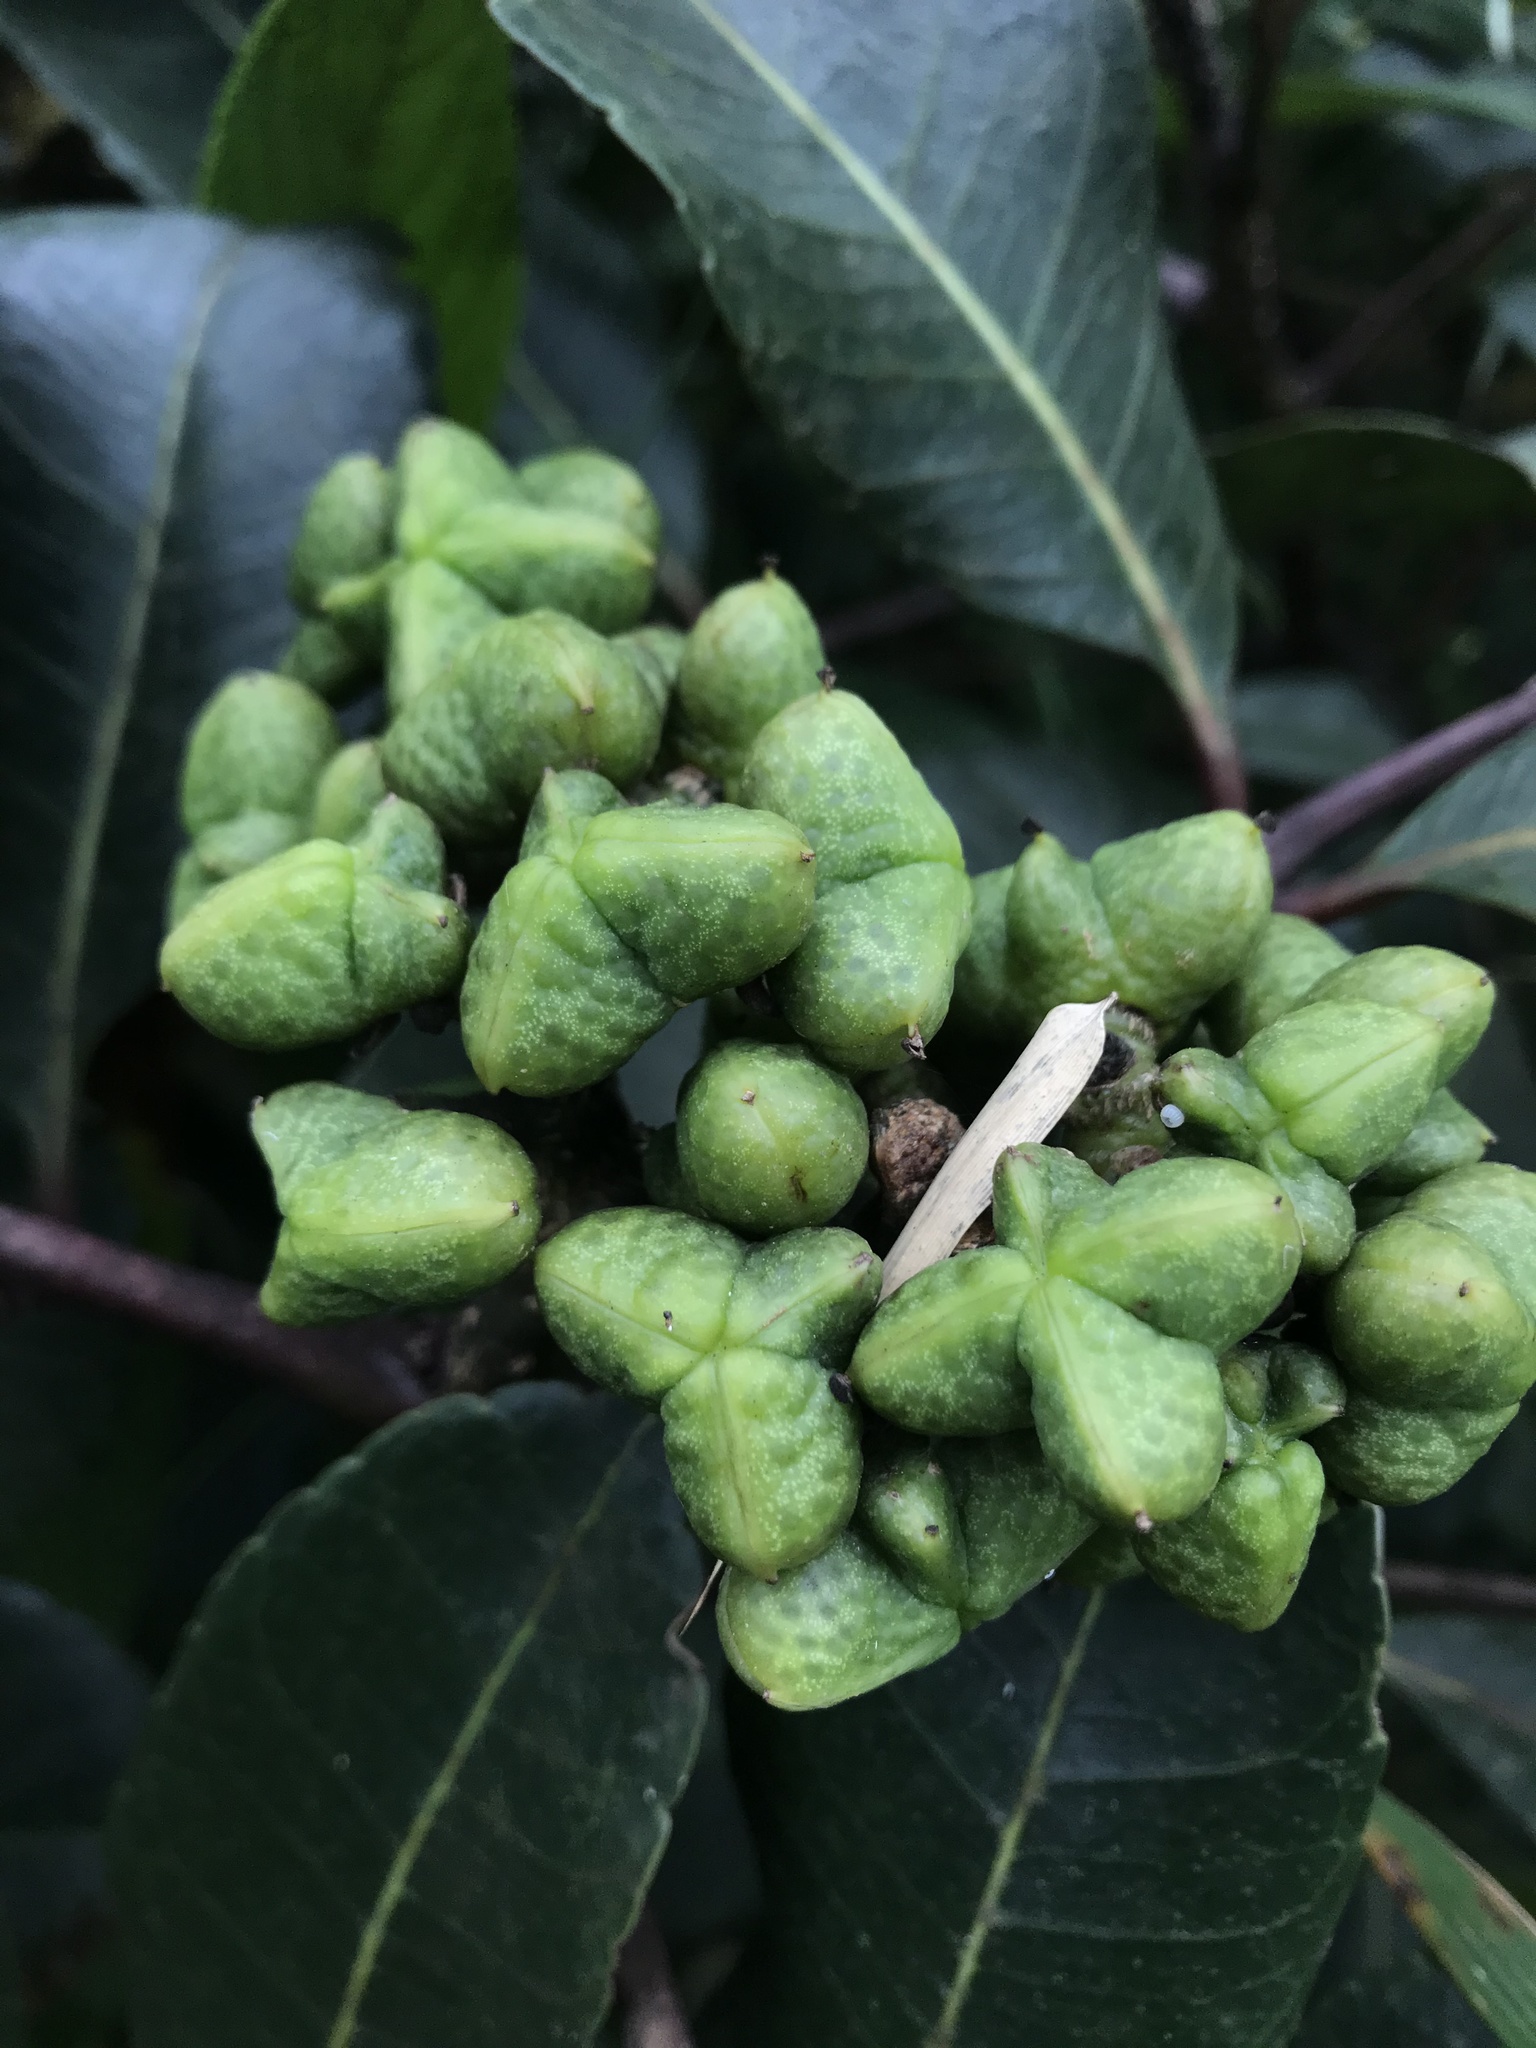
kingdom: Plantae
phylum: Tracheophyta
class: Magnoliopsida
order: Sapindales
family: Rutaceae
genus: Zanthoxylum
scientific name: Zanthoxylum quinduense
